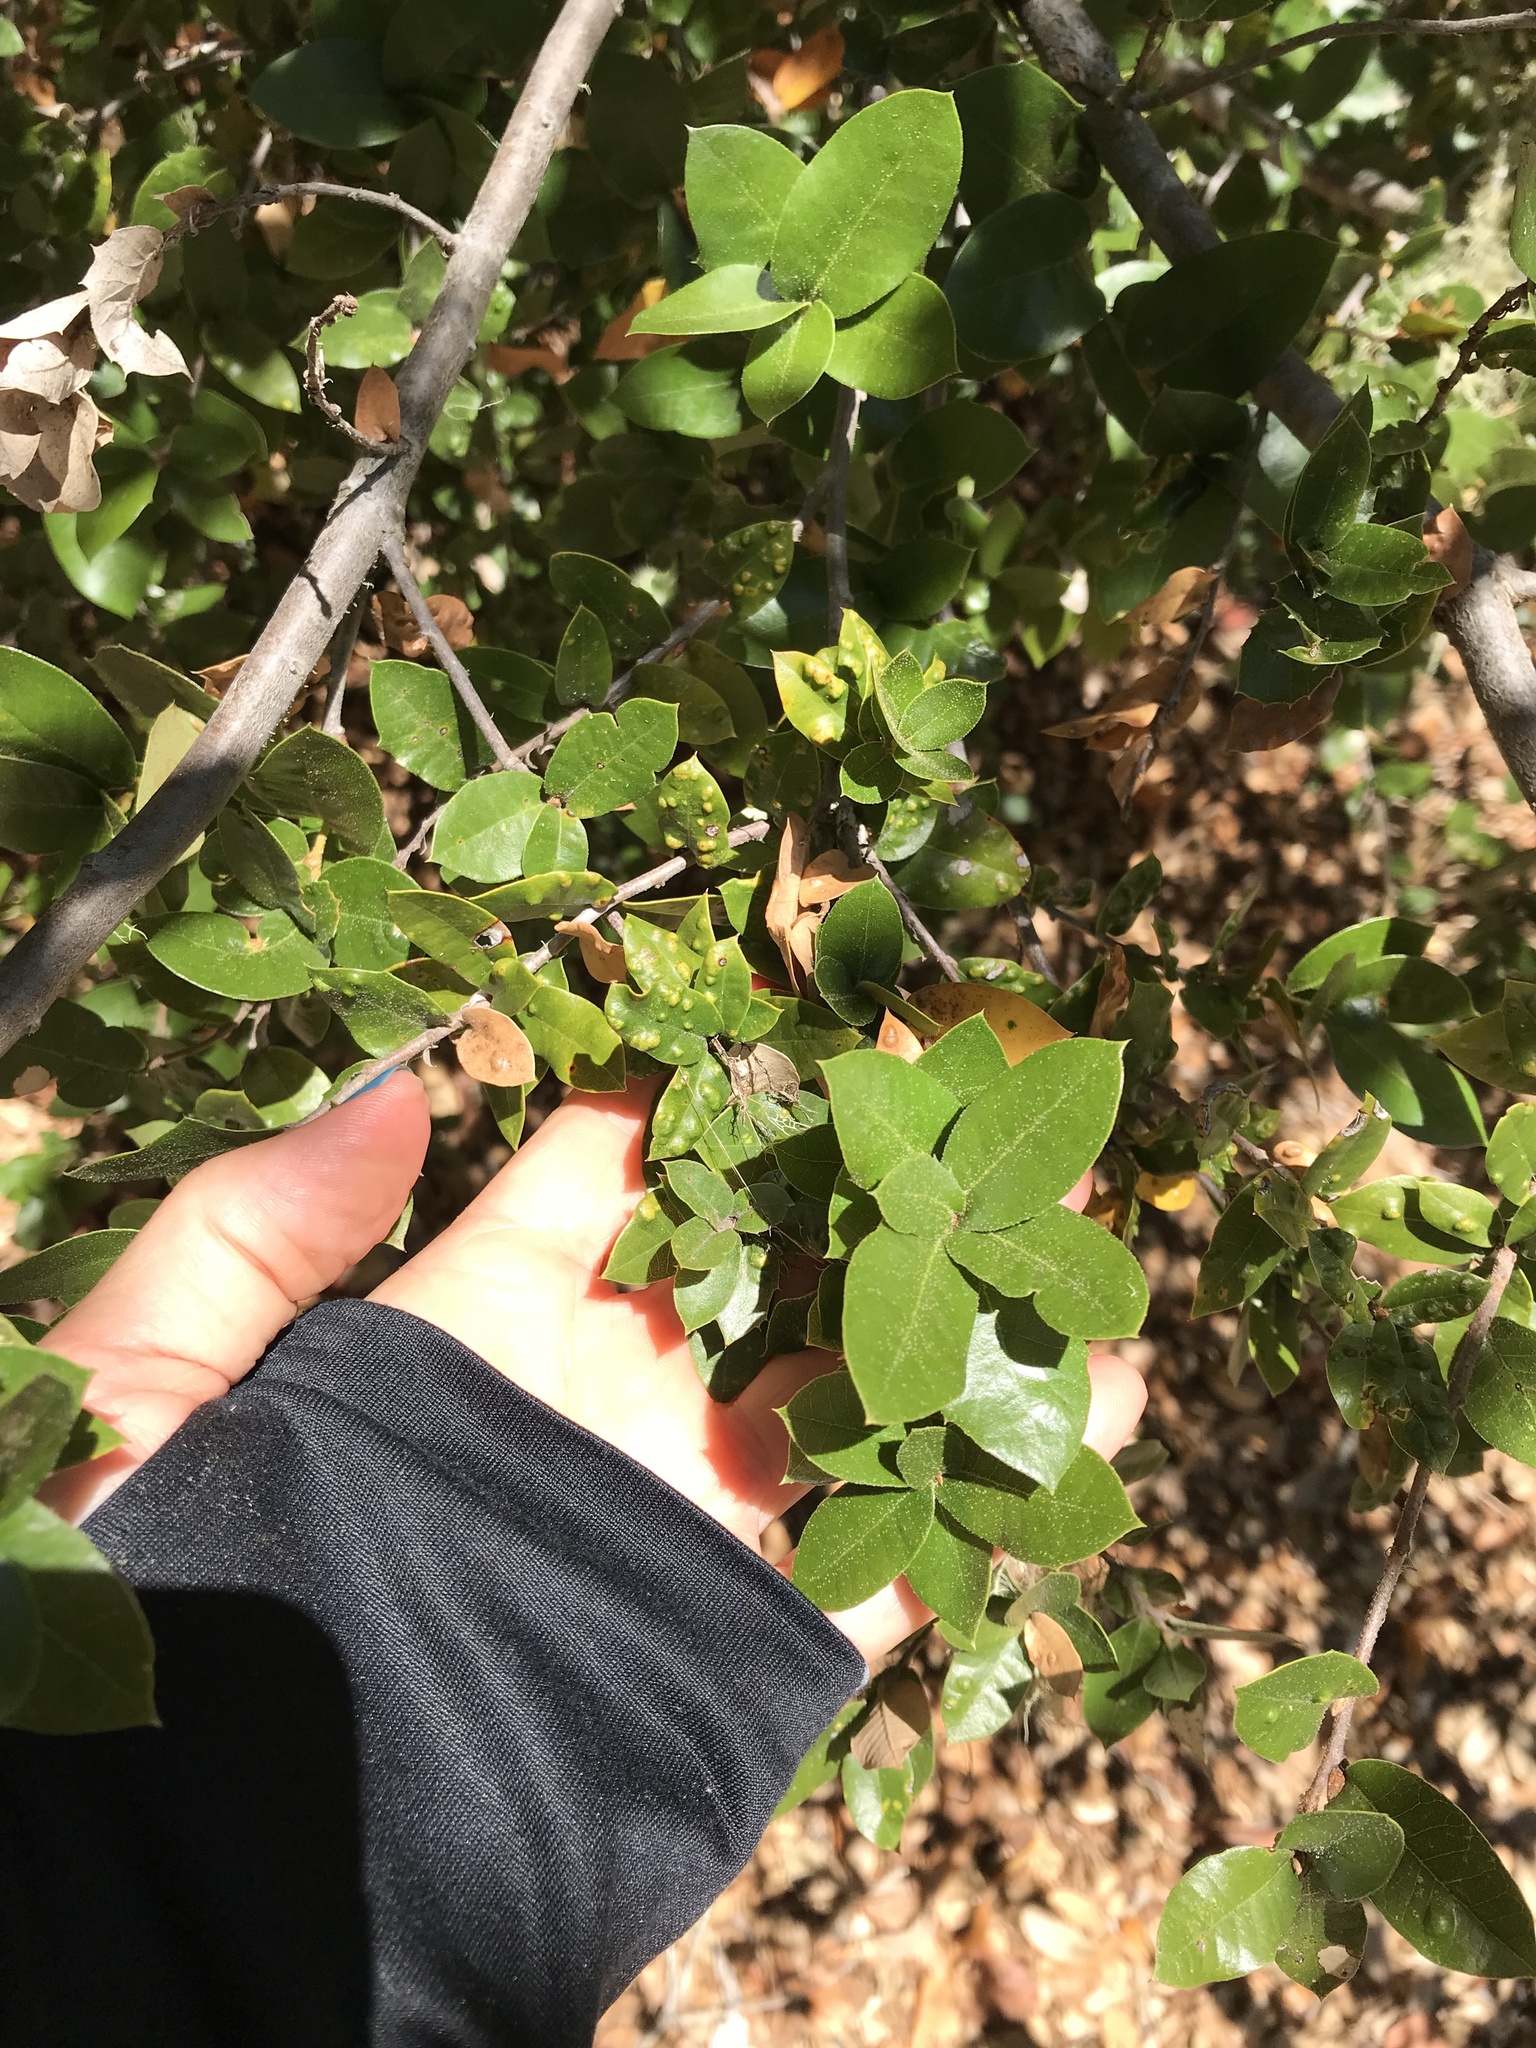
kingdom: Animalia
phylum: Arthropoda
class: Arachnida
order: Trombidiformes
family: Eriophyidae
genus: Aceria
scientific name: Aceria
